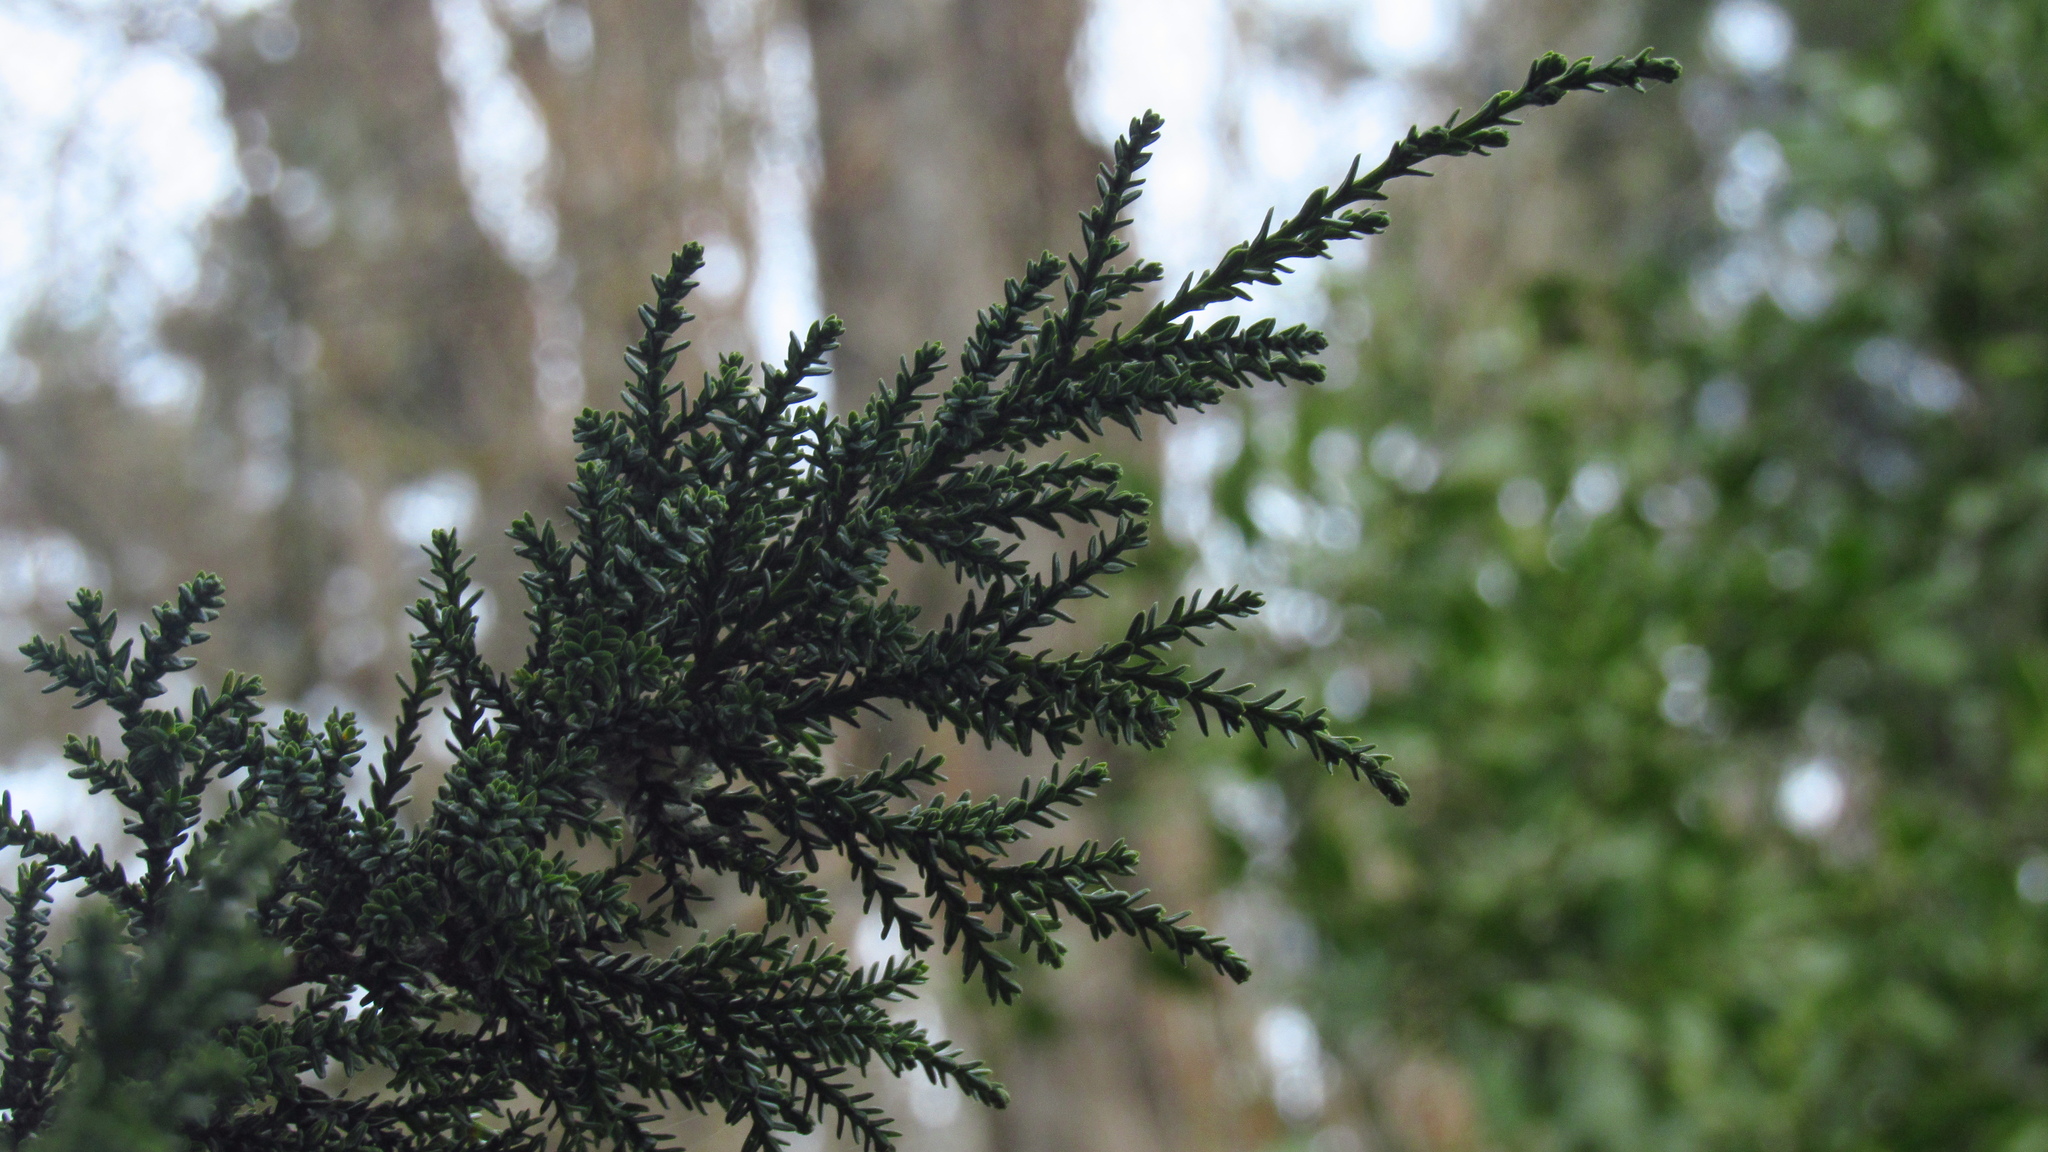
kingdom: Plantae
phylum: Tracheophyta
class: Pinopsida
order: Pinales
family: Cupressaceae
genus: Fitzroya
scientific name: Fitzroya cupressoides
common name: Patagonian cypress
